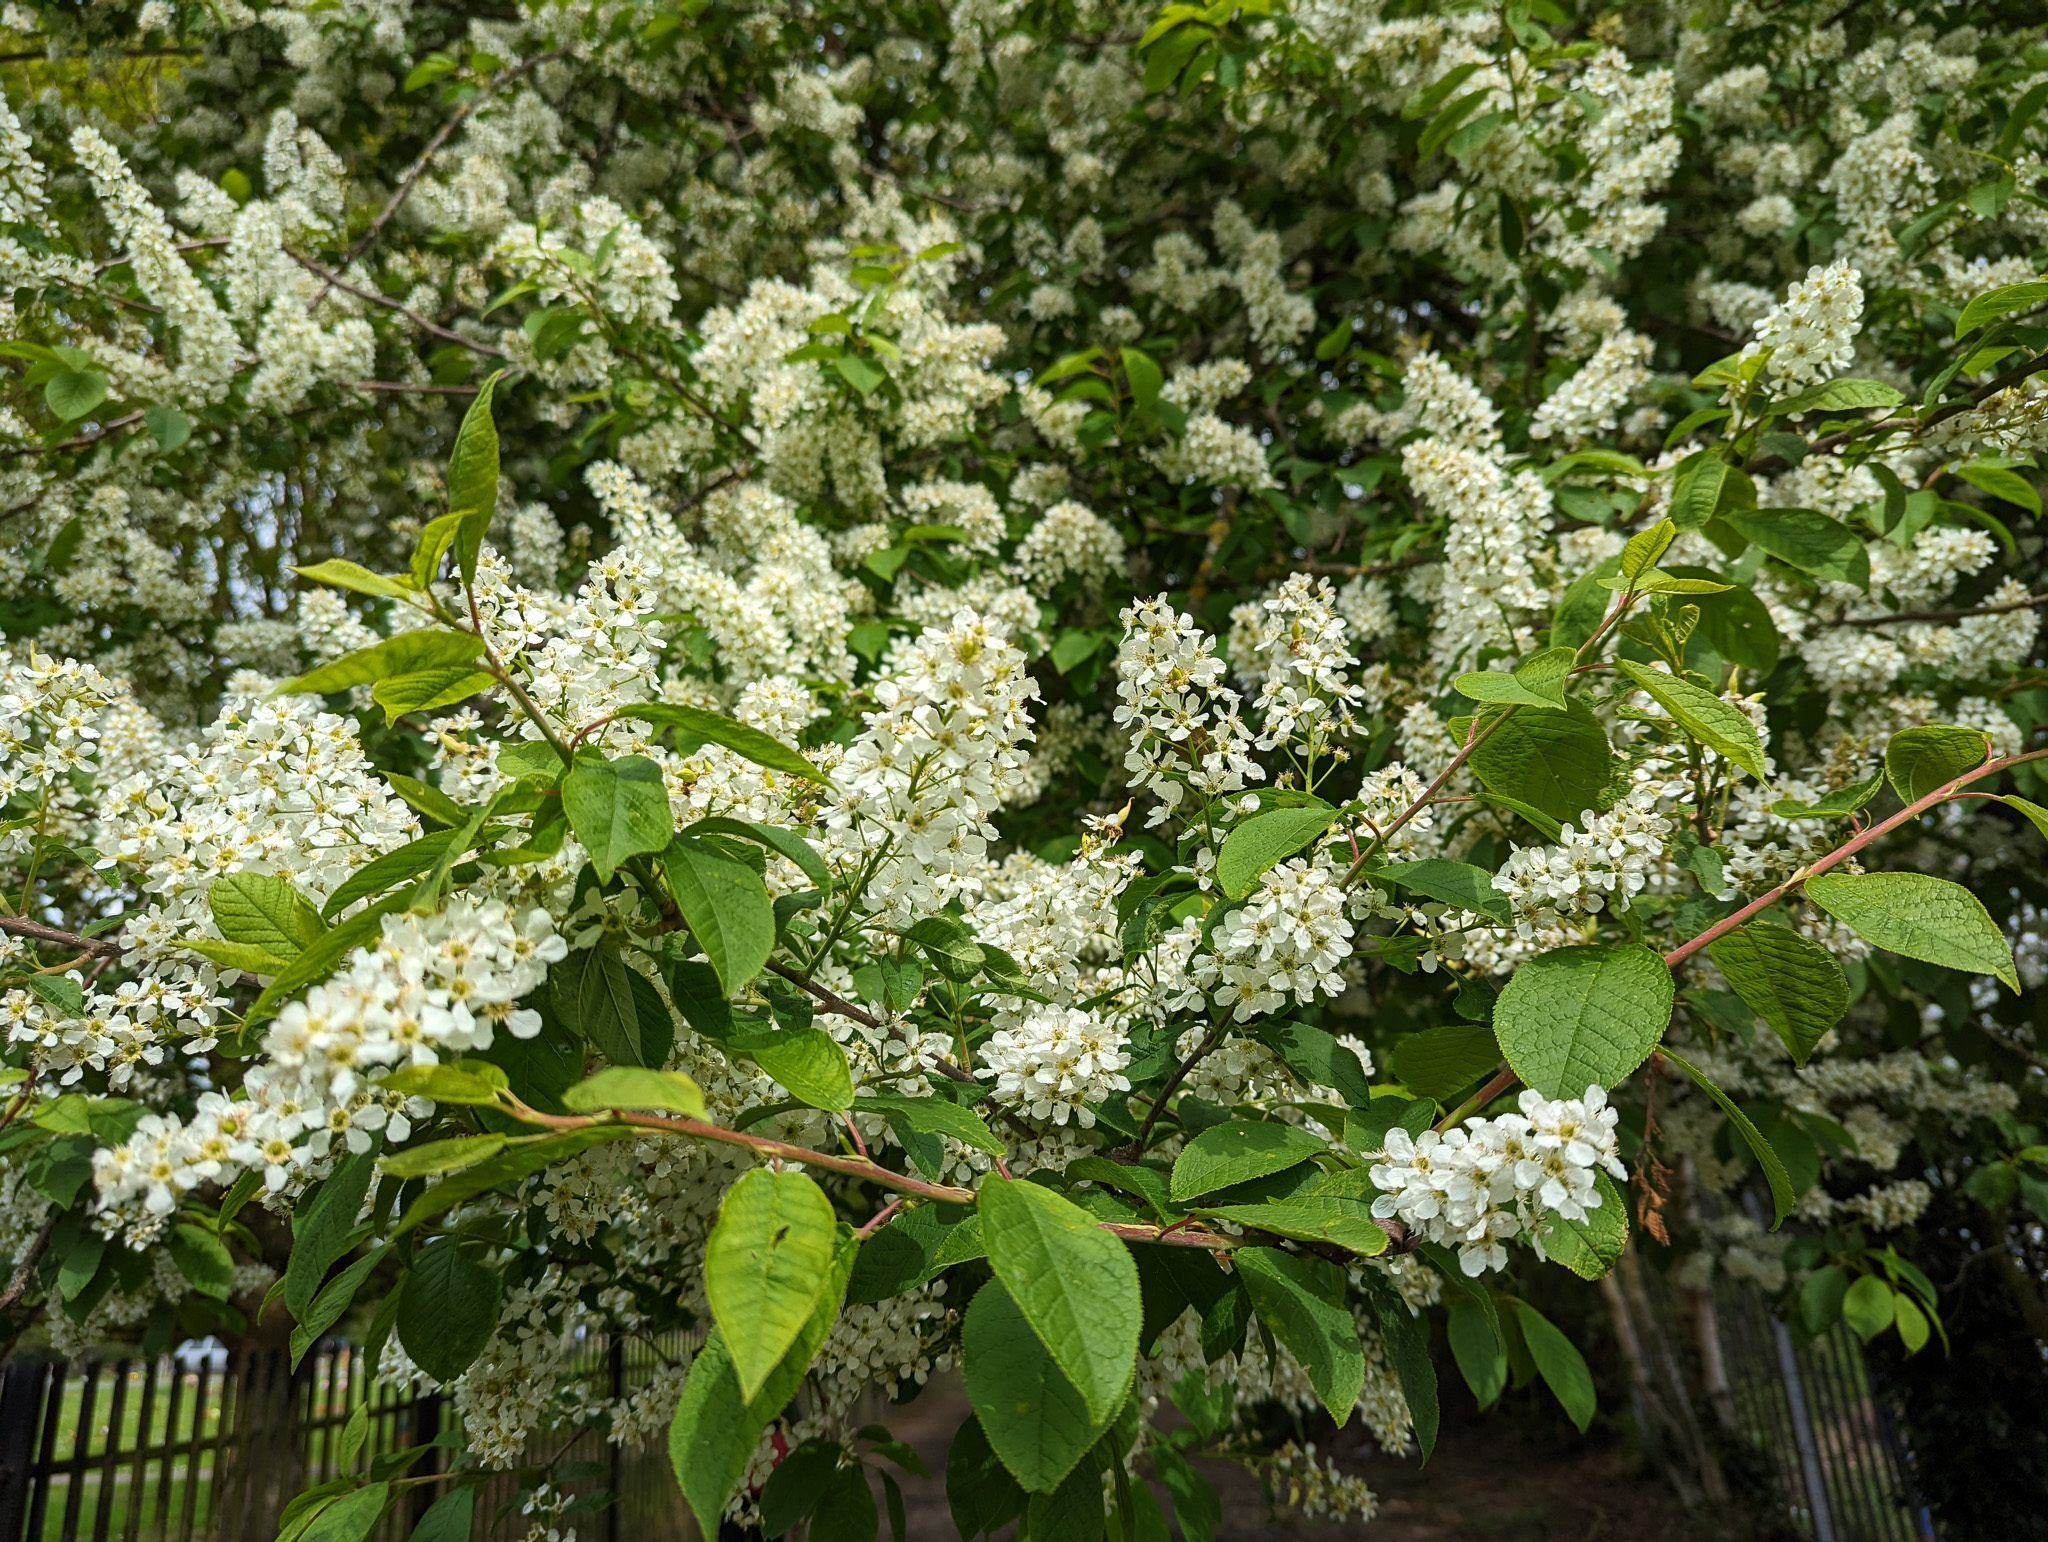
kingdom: Plantae
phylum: Tracheophyta
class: Magnoliopsida
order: Rosales
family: Rosaceae
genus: Prunus
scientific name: Prunus padus
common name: Bird cherry
